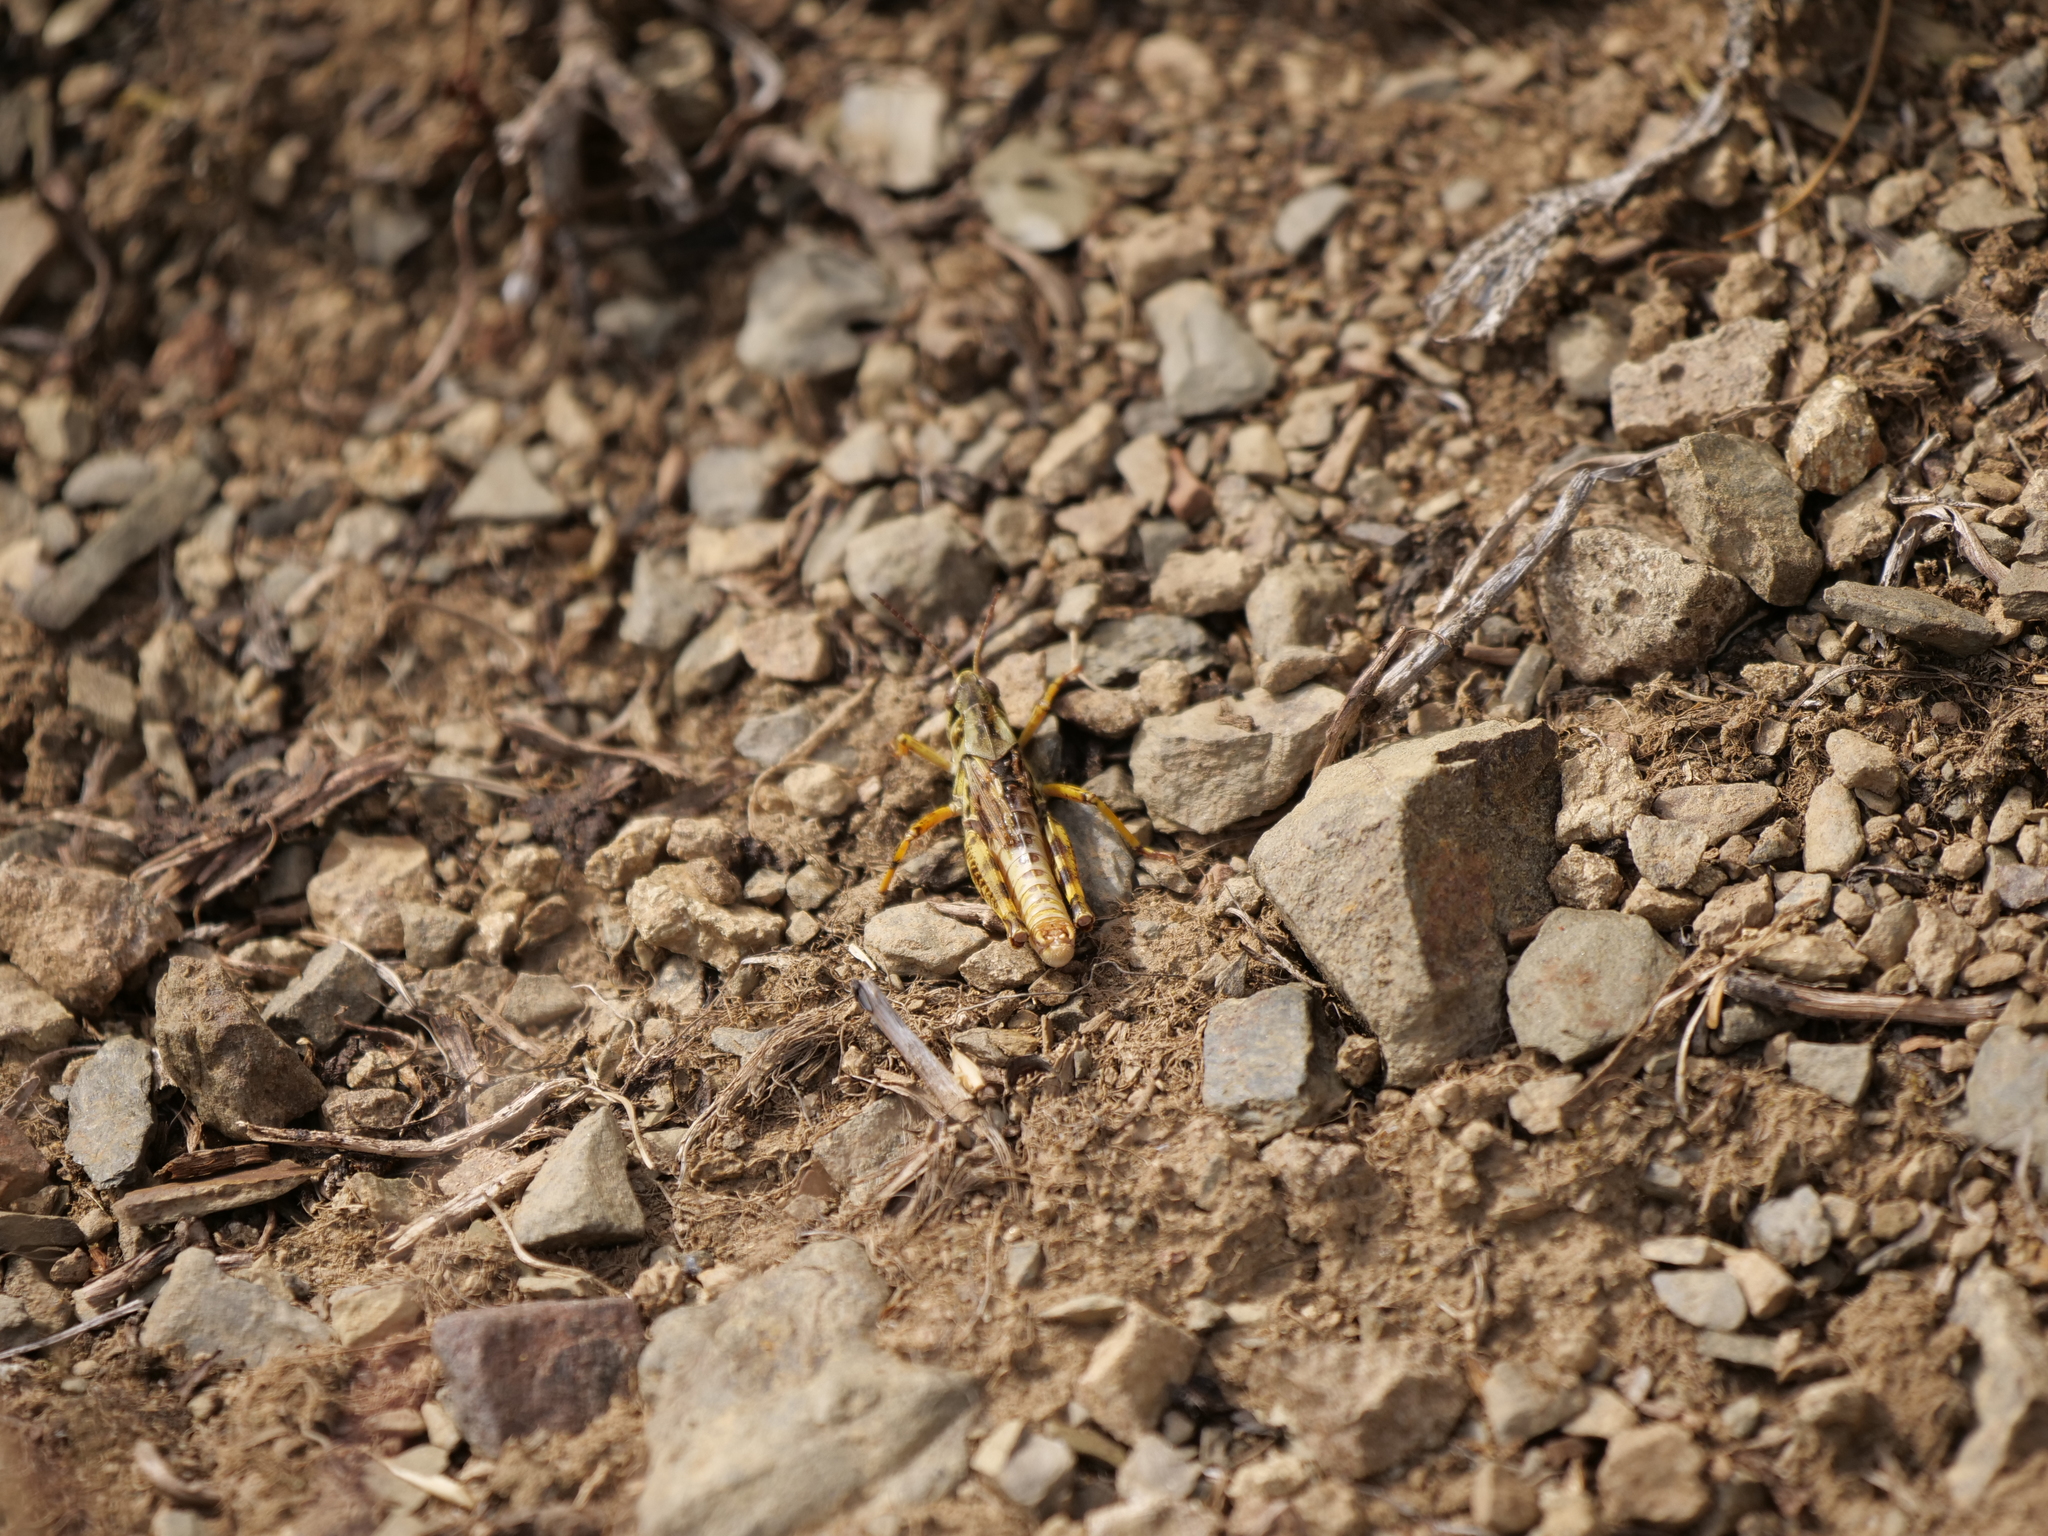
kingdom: Animalia
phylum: Arthropoda
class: Insecta
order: Orthoptera
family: Acrididae
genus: Camnula
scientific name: Camnula pellucida
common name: Clear-winged grasshopper
